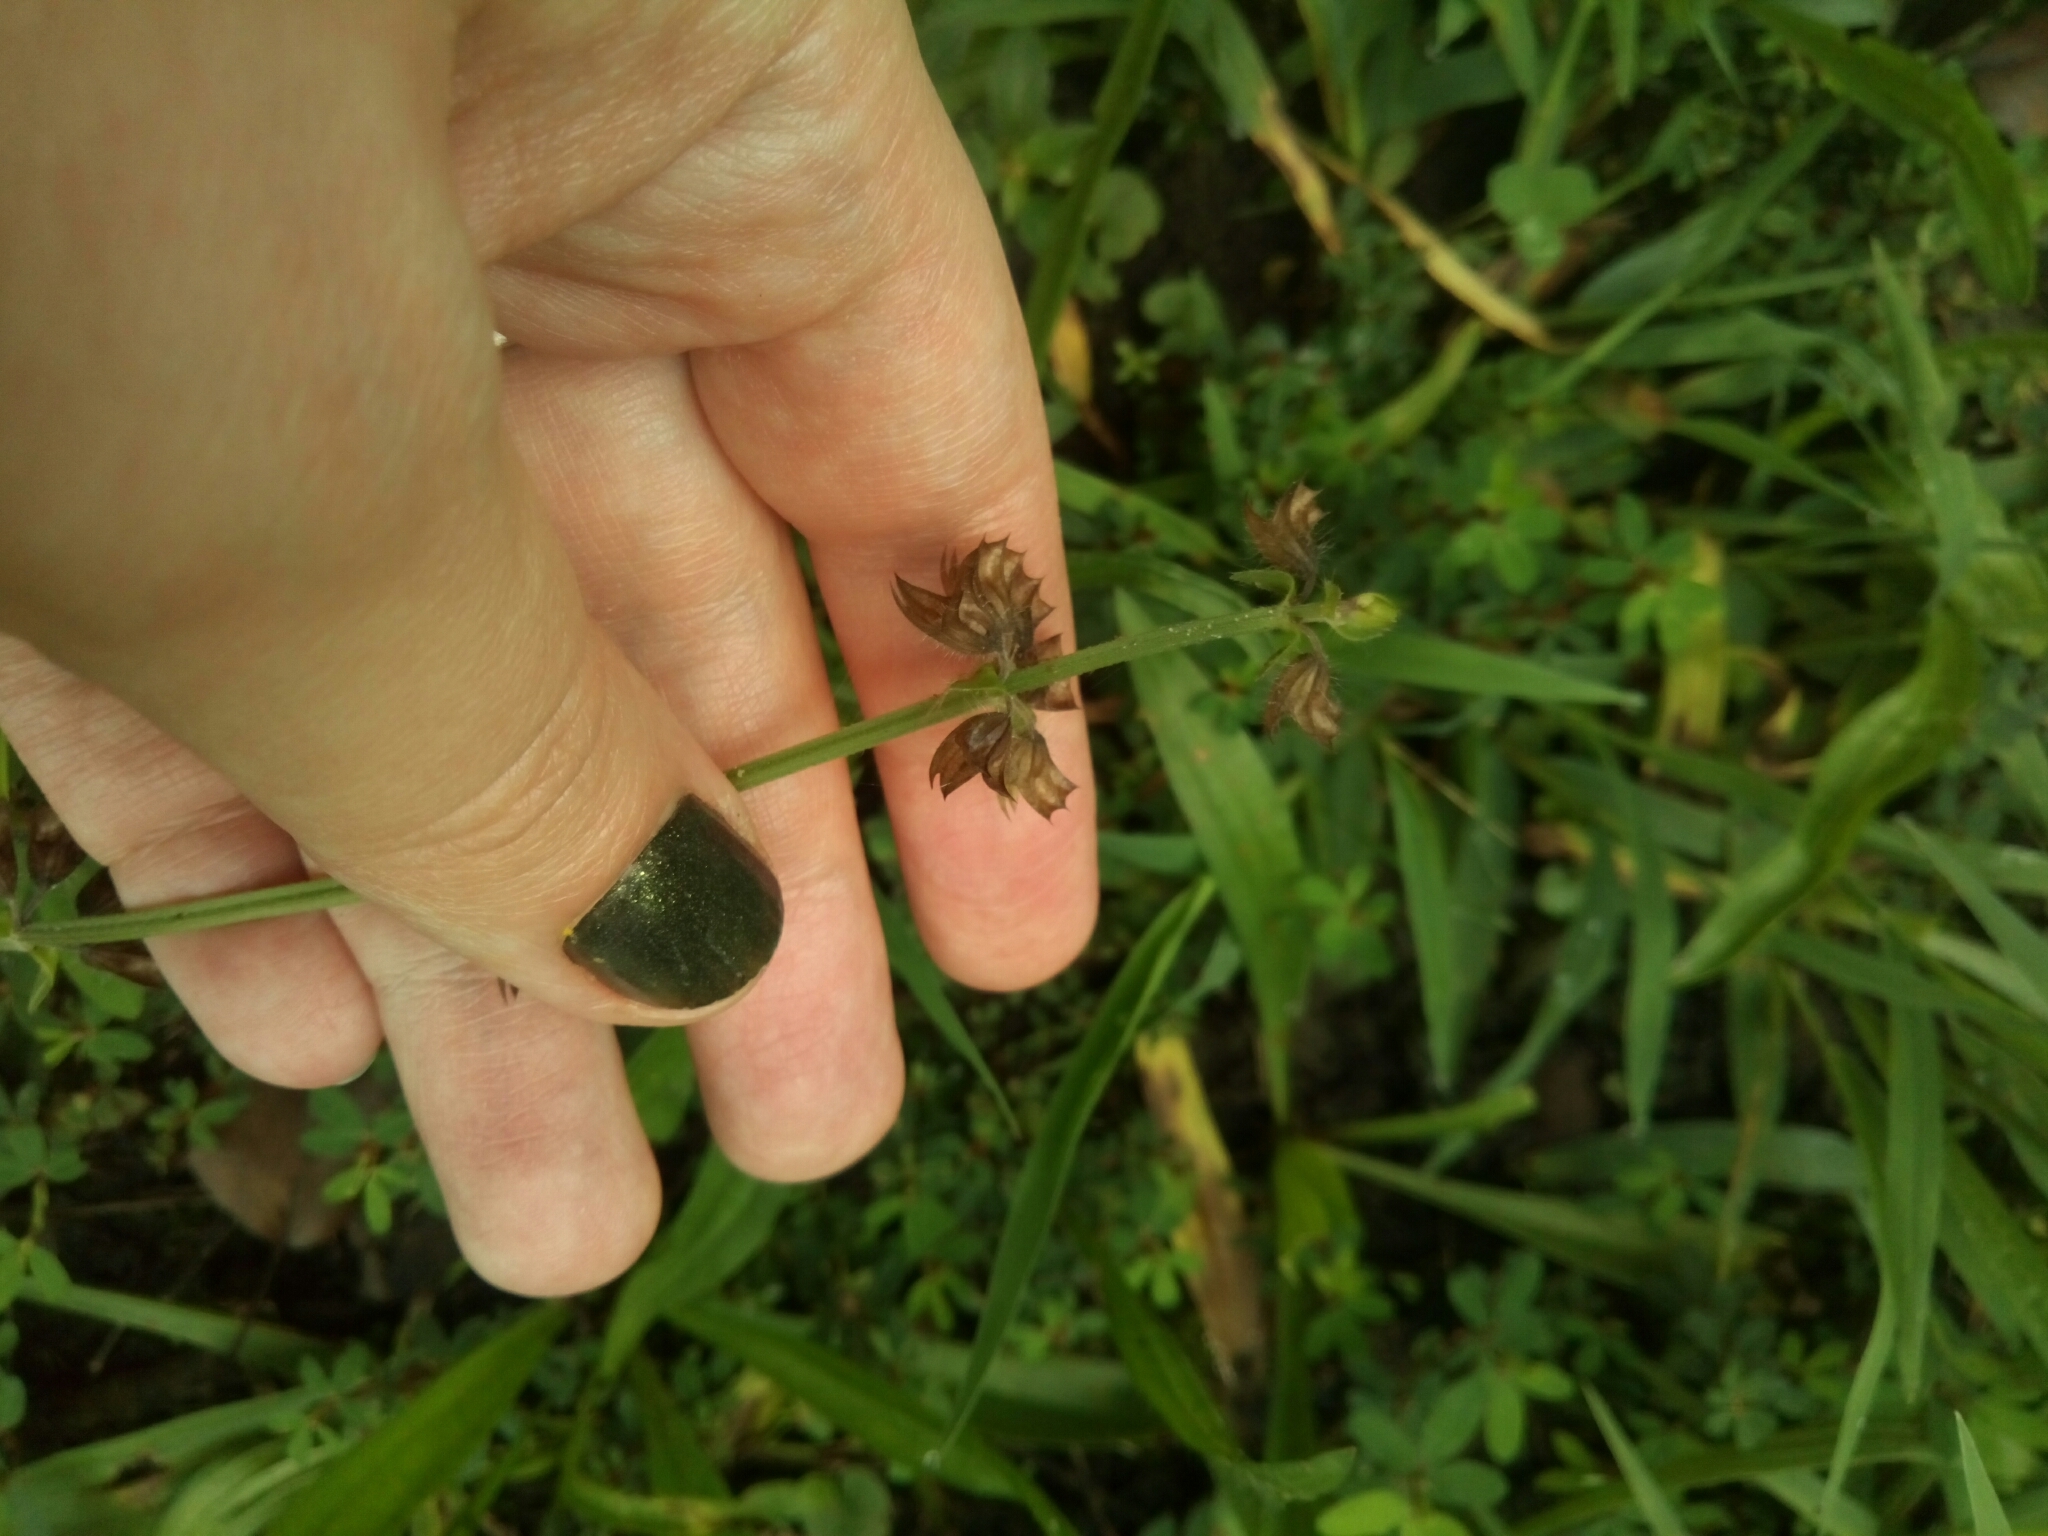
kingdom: Plantae
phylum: Tracheophyta
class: Magnoliopsida
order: Lamiales
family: Lamiaceae
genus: Salvia
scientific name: Salvia lyrata
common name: Cancerweed
